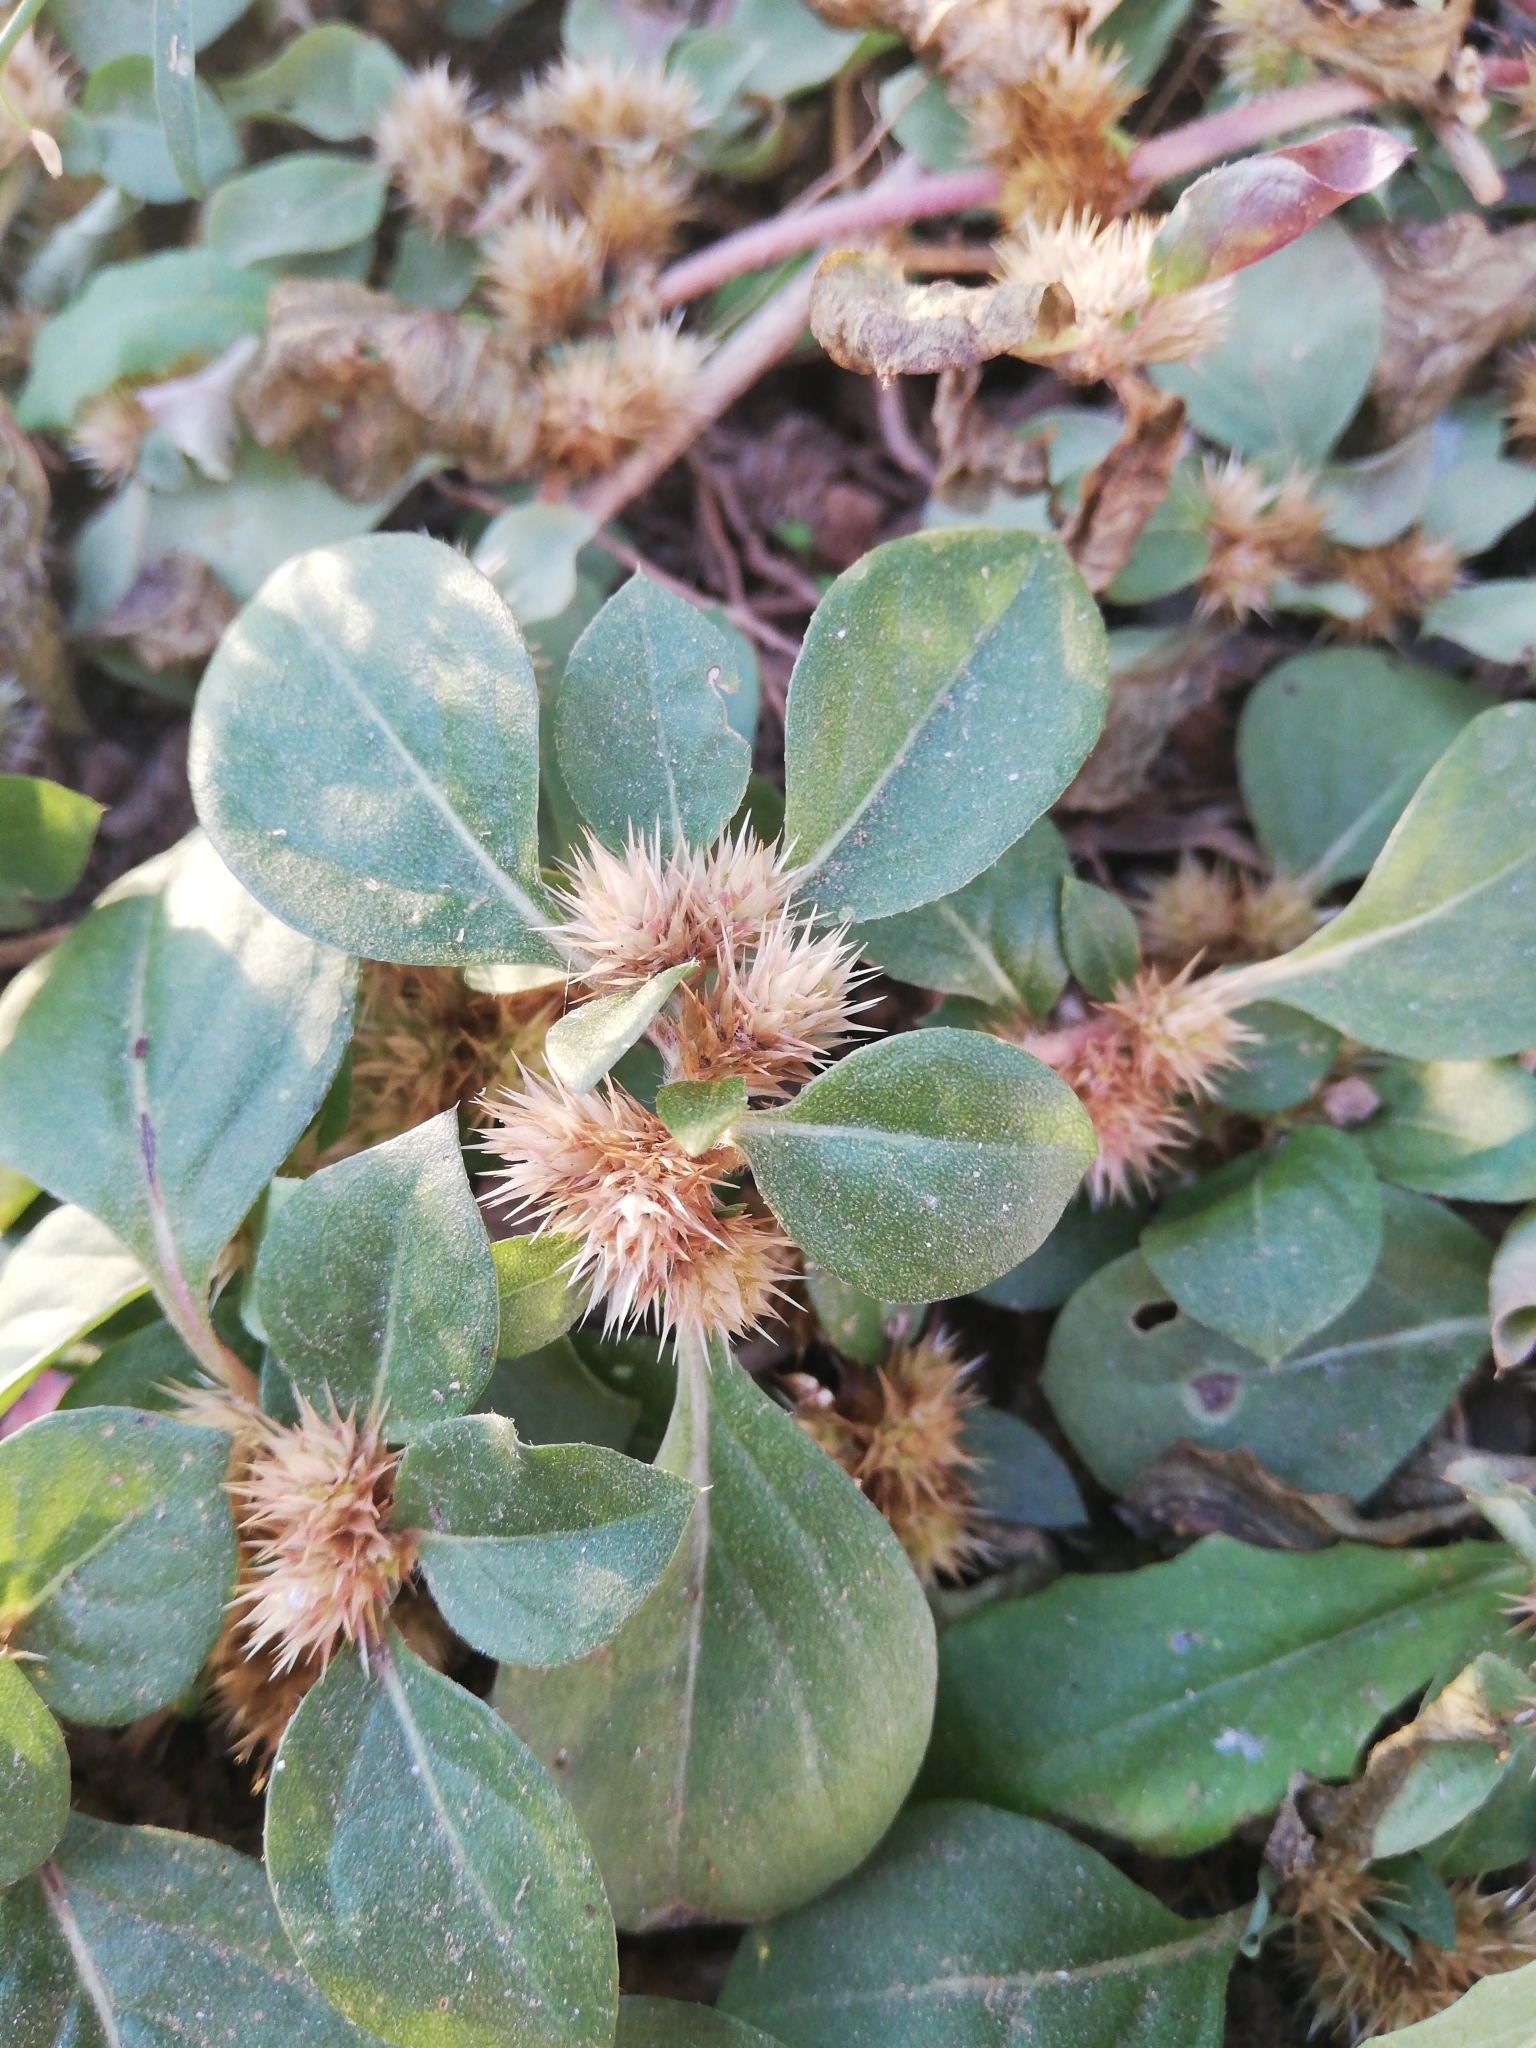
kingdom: Plantae
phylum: Tracheophyta
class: Magnoliopsida
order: Caryophyllales
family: Amaranthaceae
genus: Alternanthera
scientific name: Alternanthera pungens
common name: Khakiweed
